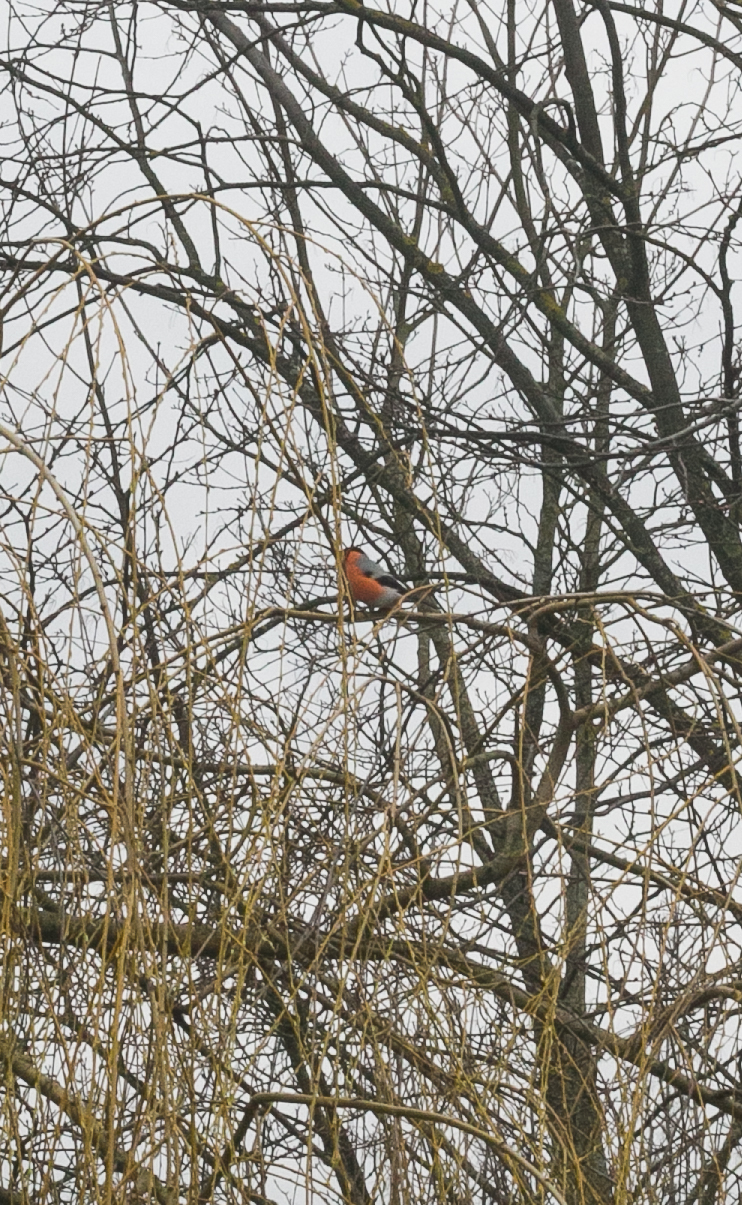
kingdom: Animalia
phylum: Chordata
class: Aves
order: Passeriformes
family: Fringillidae
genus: Pyrrhula
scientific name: Pyrrhula pyrrhula
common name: Eurasian bullfinch
